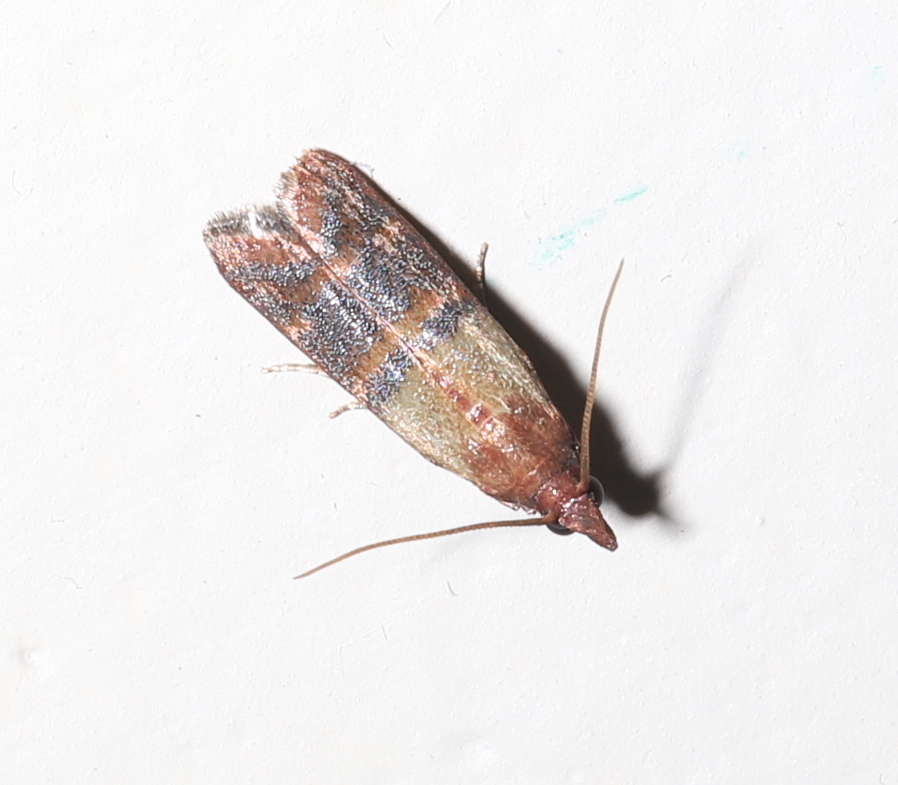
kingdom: Animalia
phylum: Arthropoda
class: Insecta
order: Lepidoptera
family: Pyralidae
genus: Plodia
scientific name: Plodia interpunctella
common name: Indian meal moth
